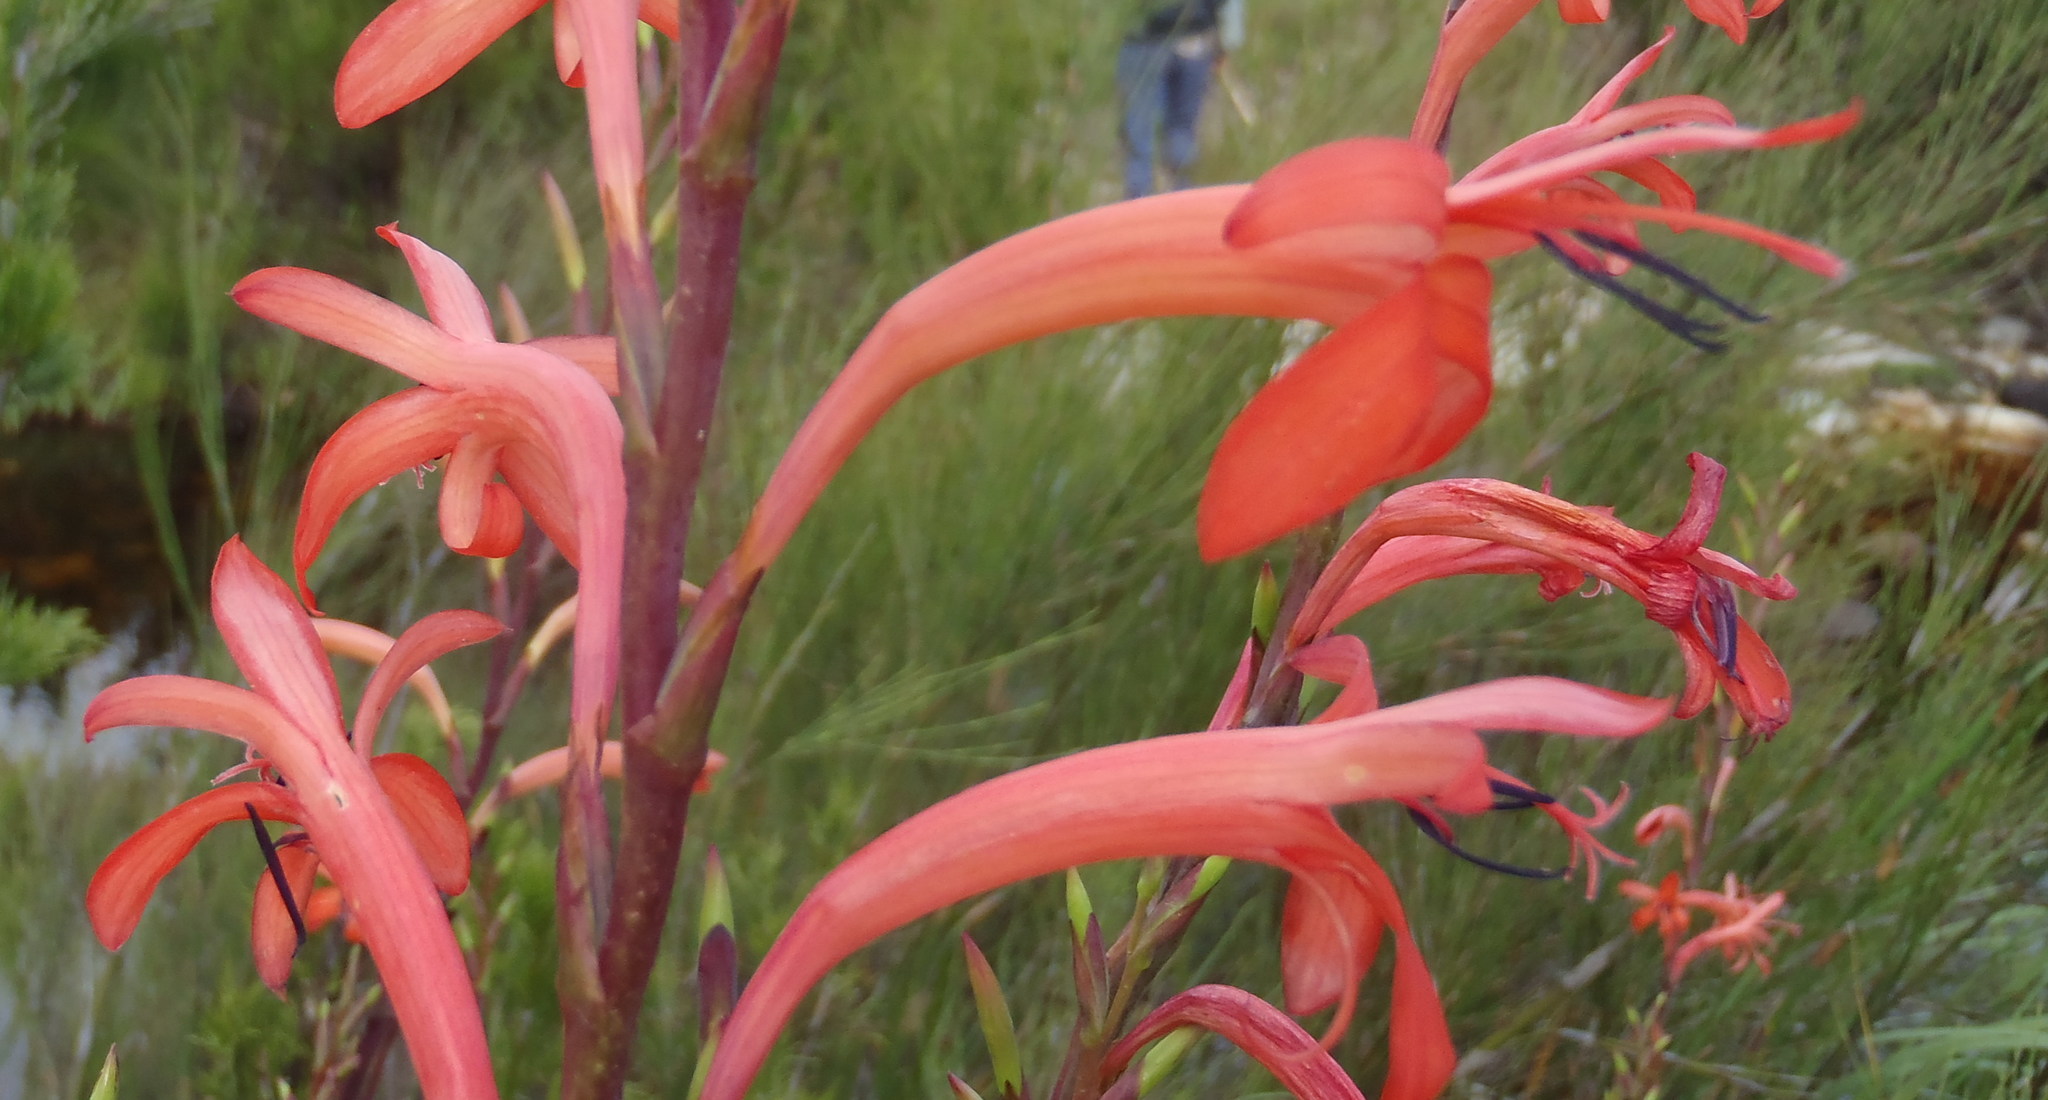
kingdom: Plantae
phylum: Tracheophyta
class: Liliopsida
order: Asparagales
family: Iridaceae
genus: Watsonia
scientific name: Watsonia angusta
